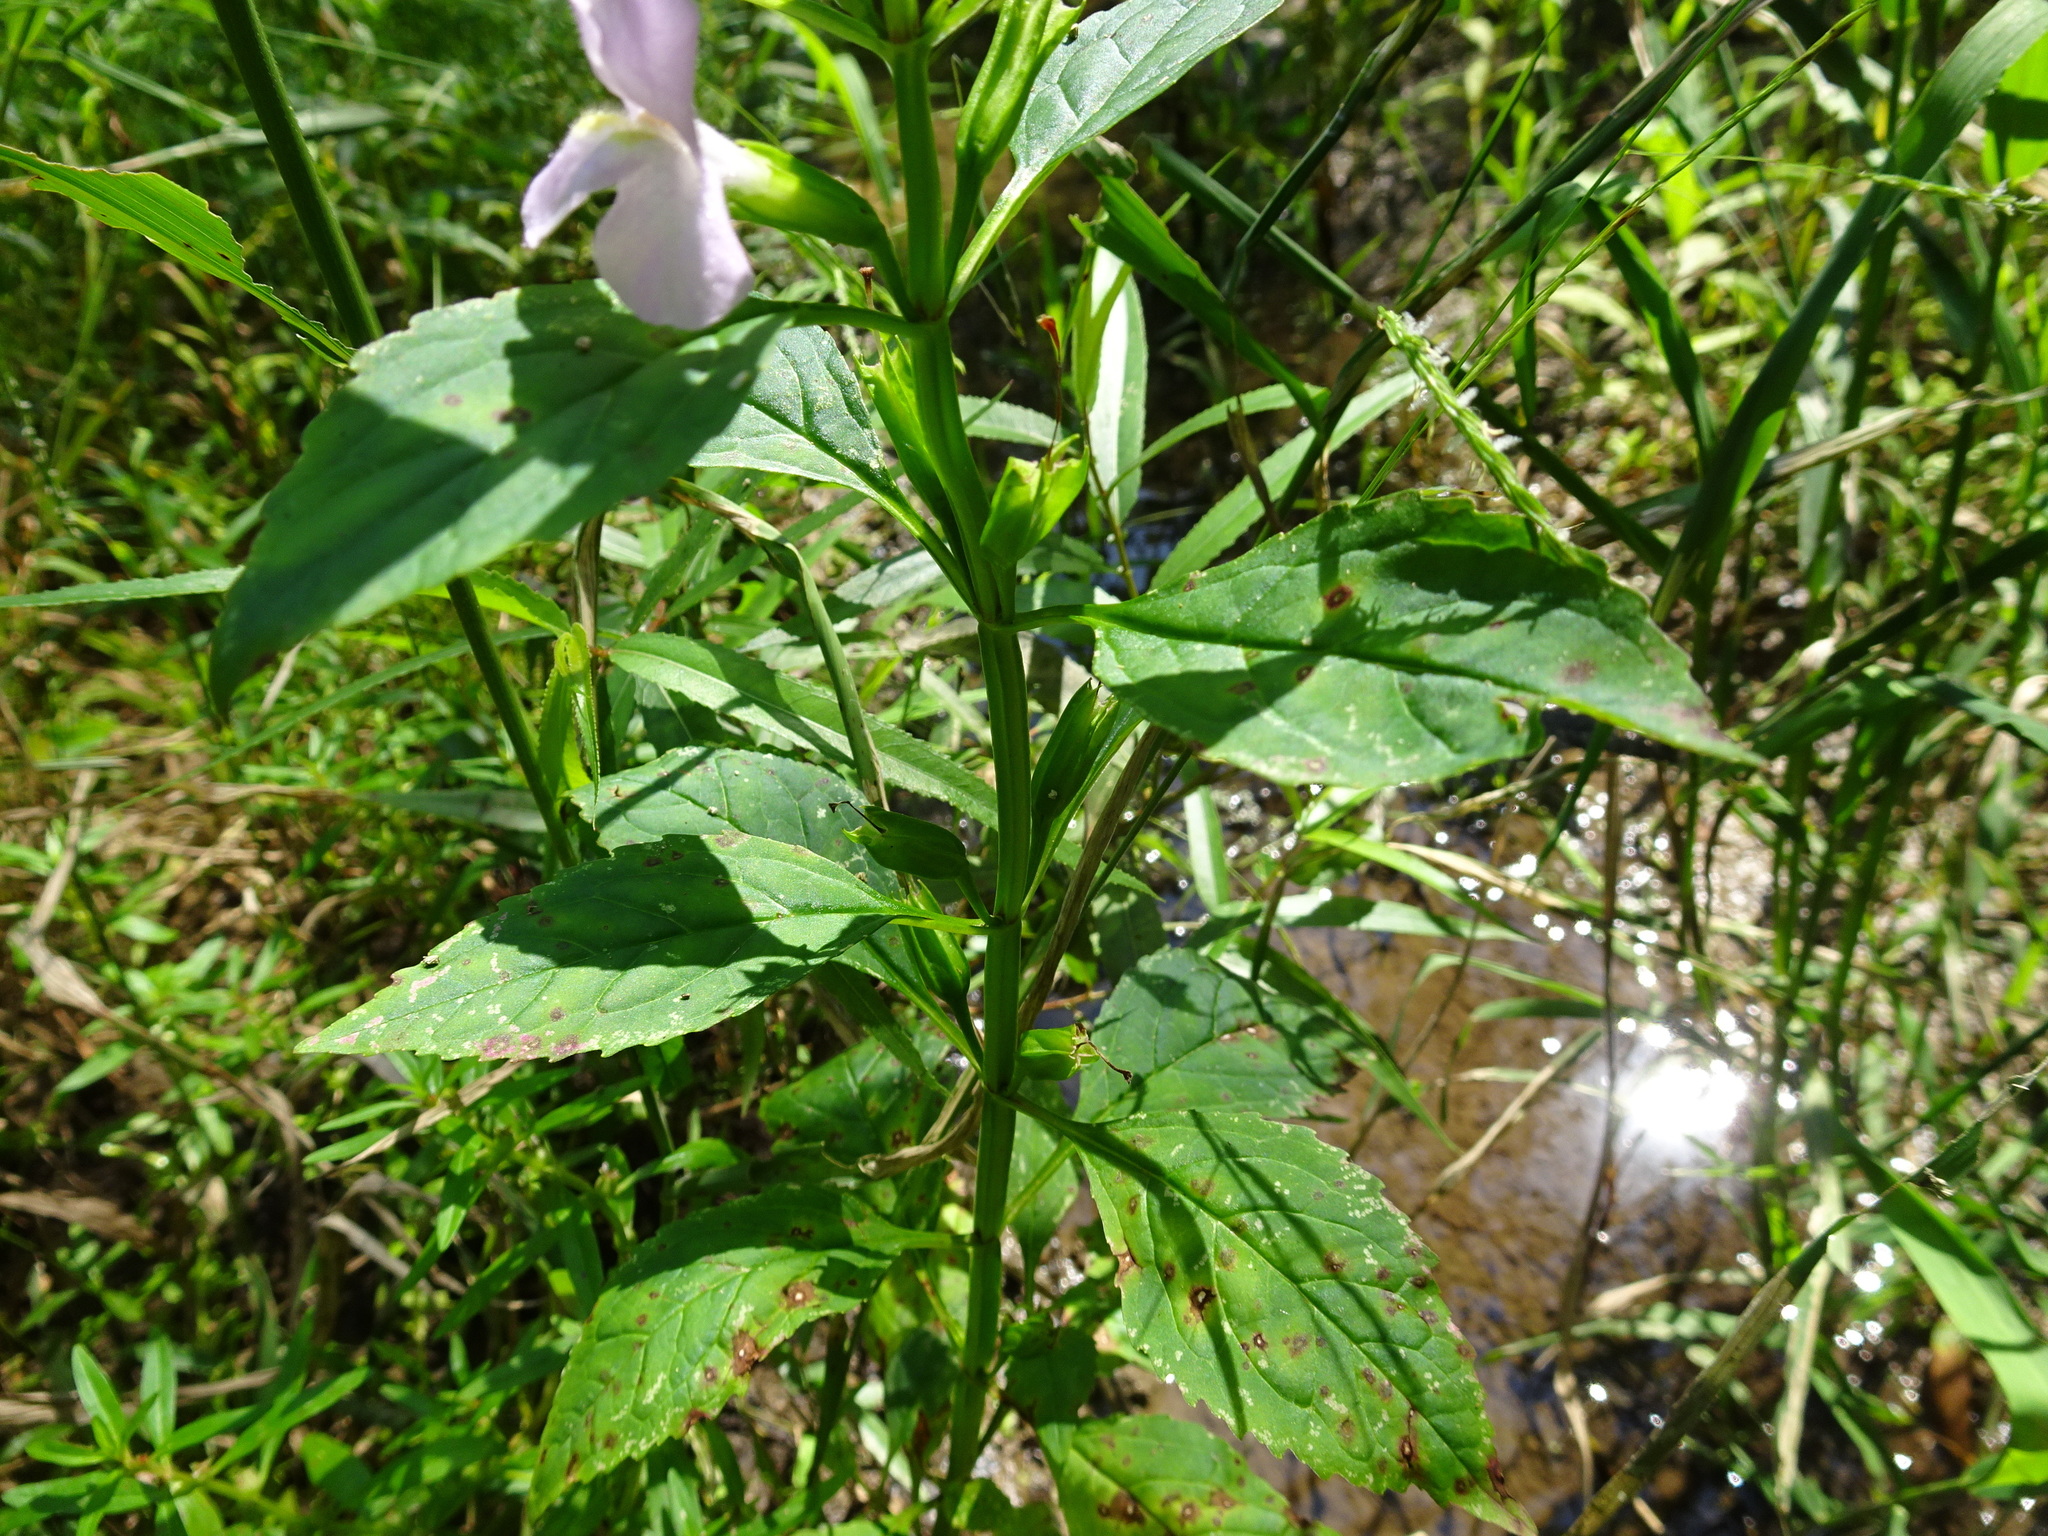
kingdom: Plantae
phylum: Tracheophyta
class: Magnoliopsida
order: Lamiales
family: Phrymaceae
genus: Mimulus
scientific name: Mimulus alatus
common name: Sharp-wing monkey-flower
